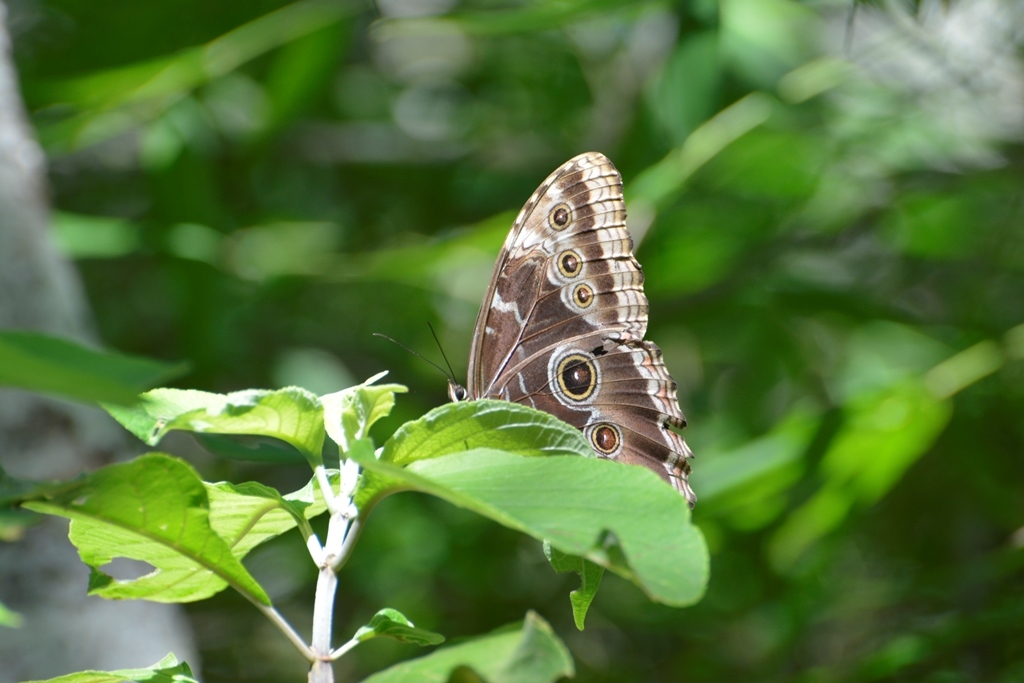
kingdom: Animalia
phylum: Arthropoda
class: Insecta
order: Lepidoptera
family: Nymphalidae
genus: Morpho
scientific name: Morpho helenor
